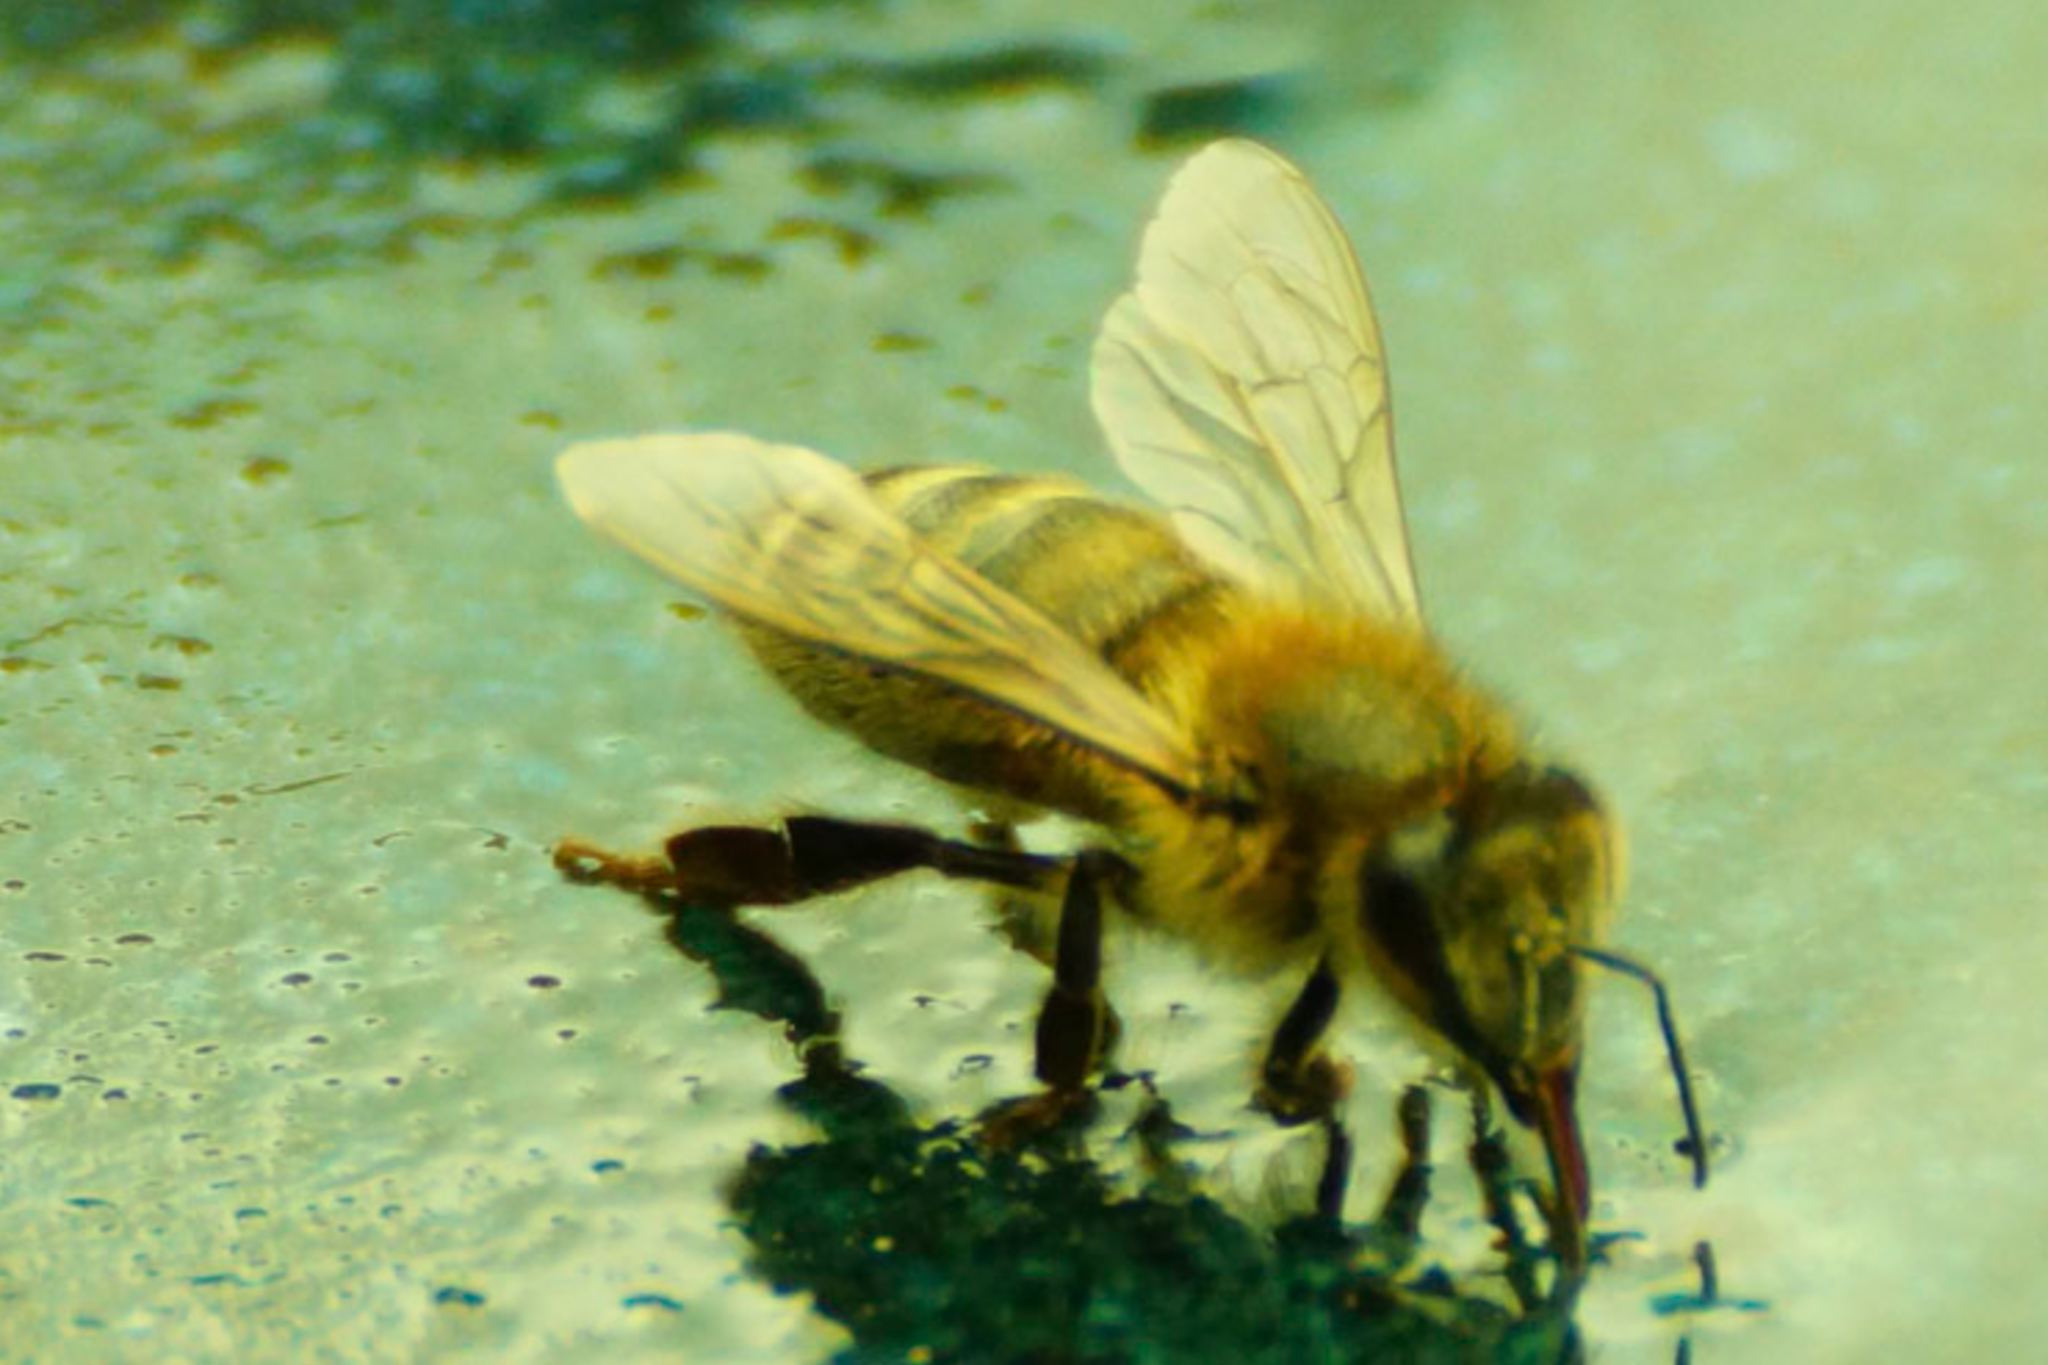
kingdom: Animalia
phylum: Arthropoda
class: Insecta
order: Hymenoptera
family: Apidae
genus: Apis
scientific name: Apis mellifera
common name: Honey bee
